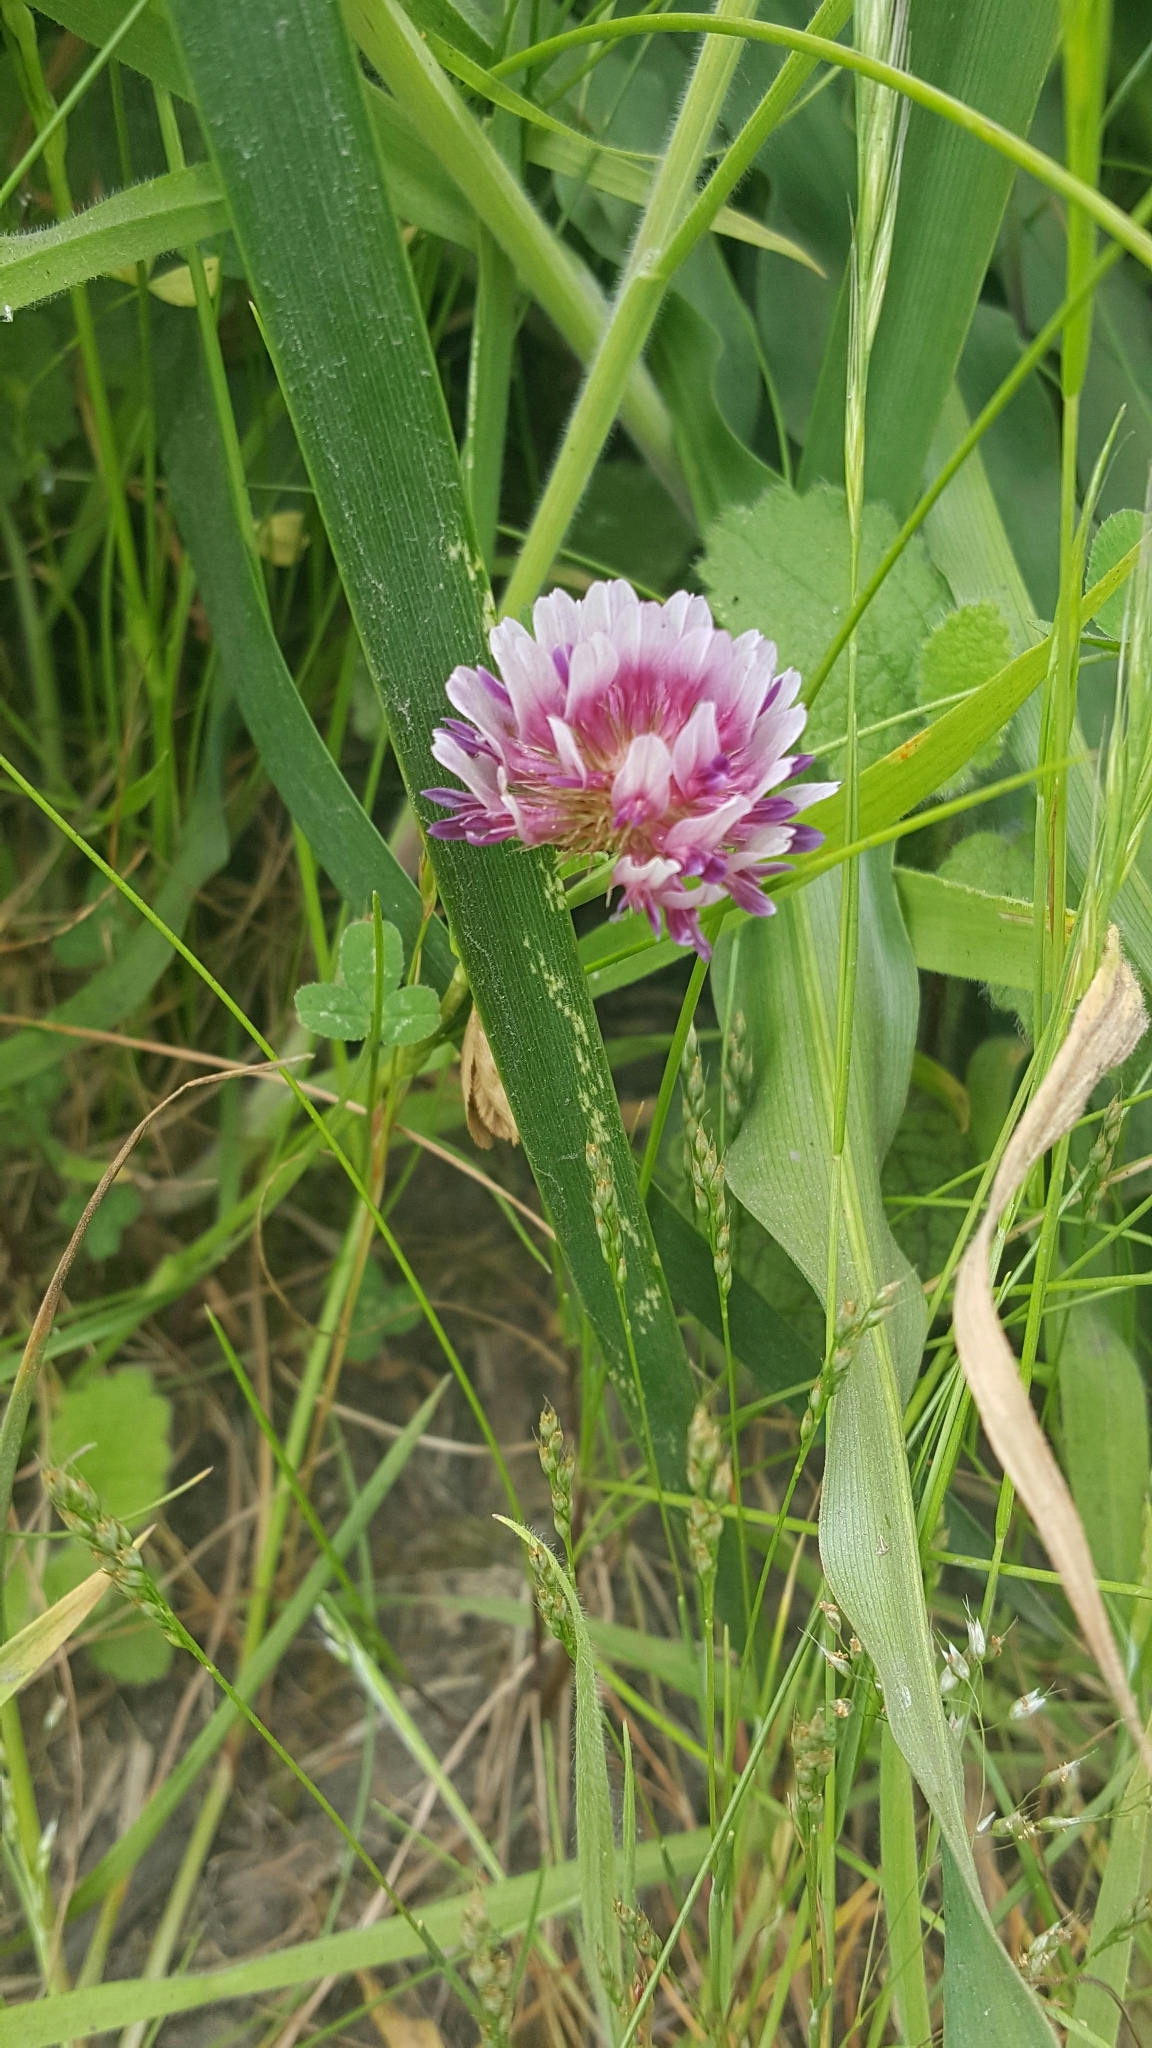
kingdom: Plantae
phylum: Tracheophyta
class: Magnoliopsida
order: Fabales
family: Fabaceae
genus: Trifolium
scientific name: Trifolium wormskioldii
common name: Springbank clover
